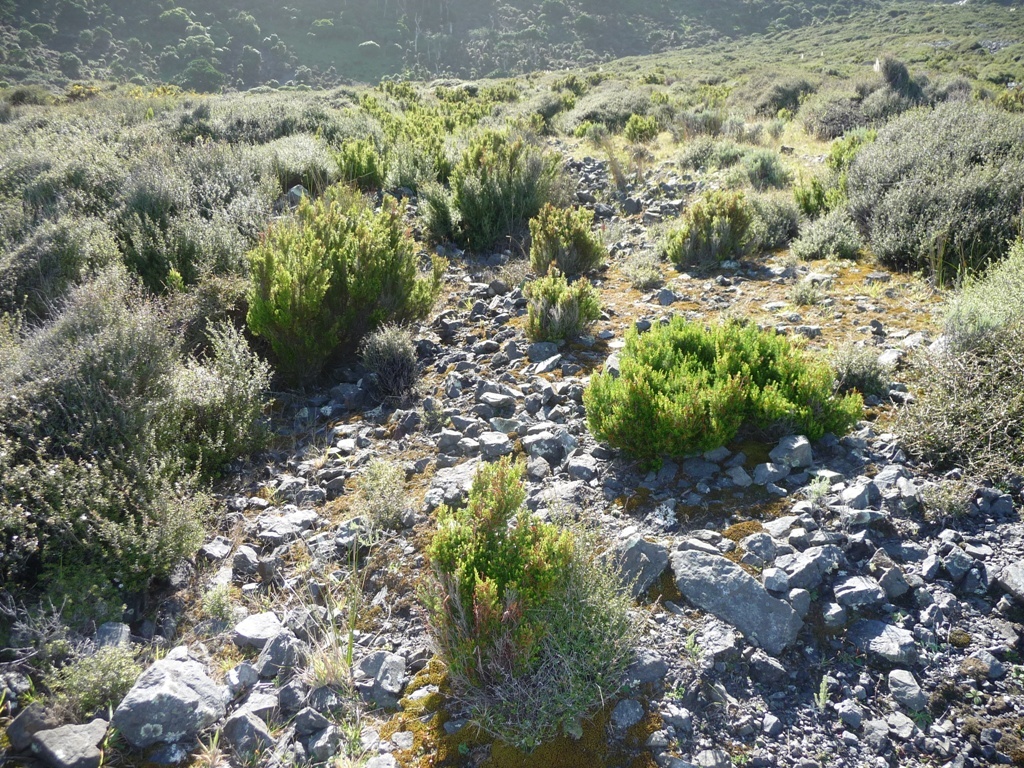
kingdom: Plantae
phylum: Tracheophyta
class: Magnoliopsida
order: Ericales
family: Ericaceae
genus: Erica
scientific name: Erica lusitanica
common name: Spanish heath
